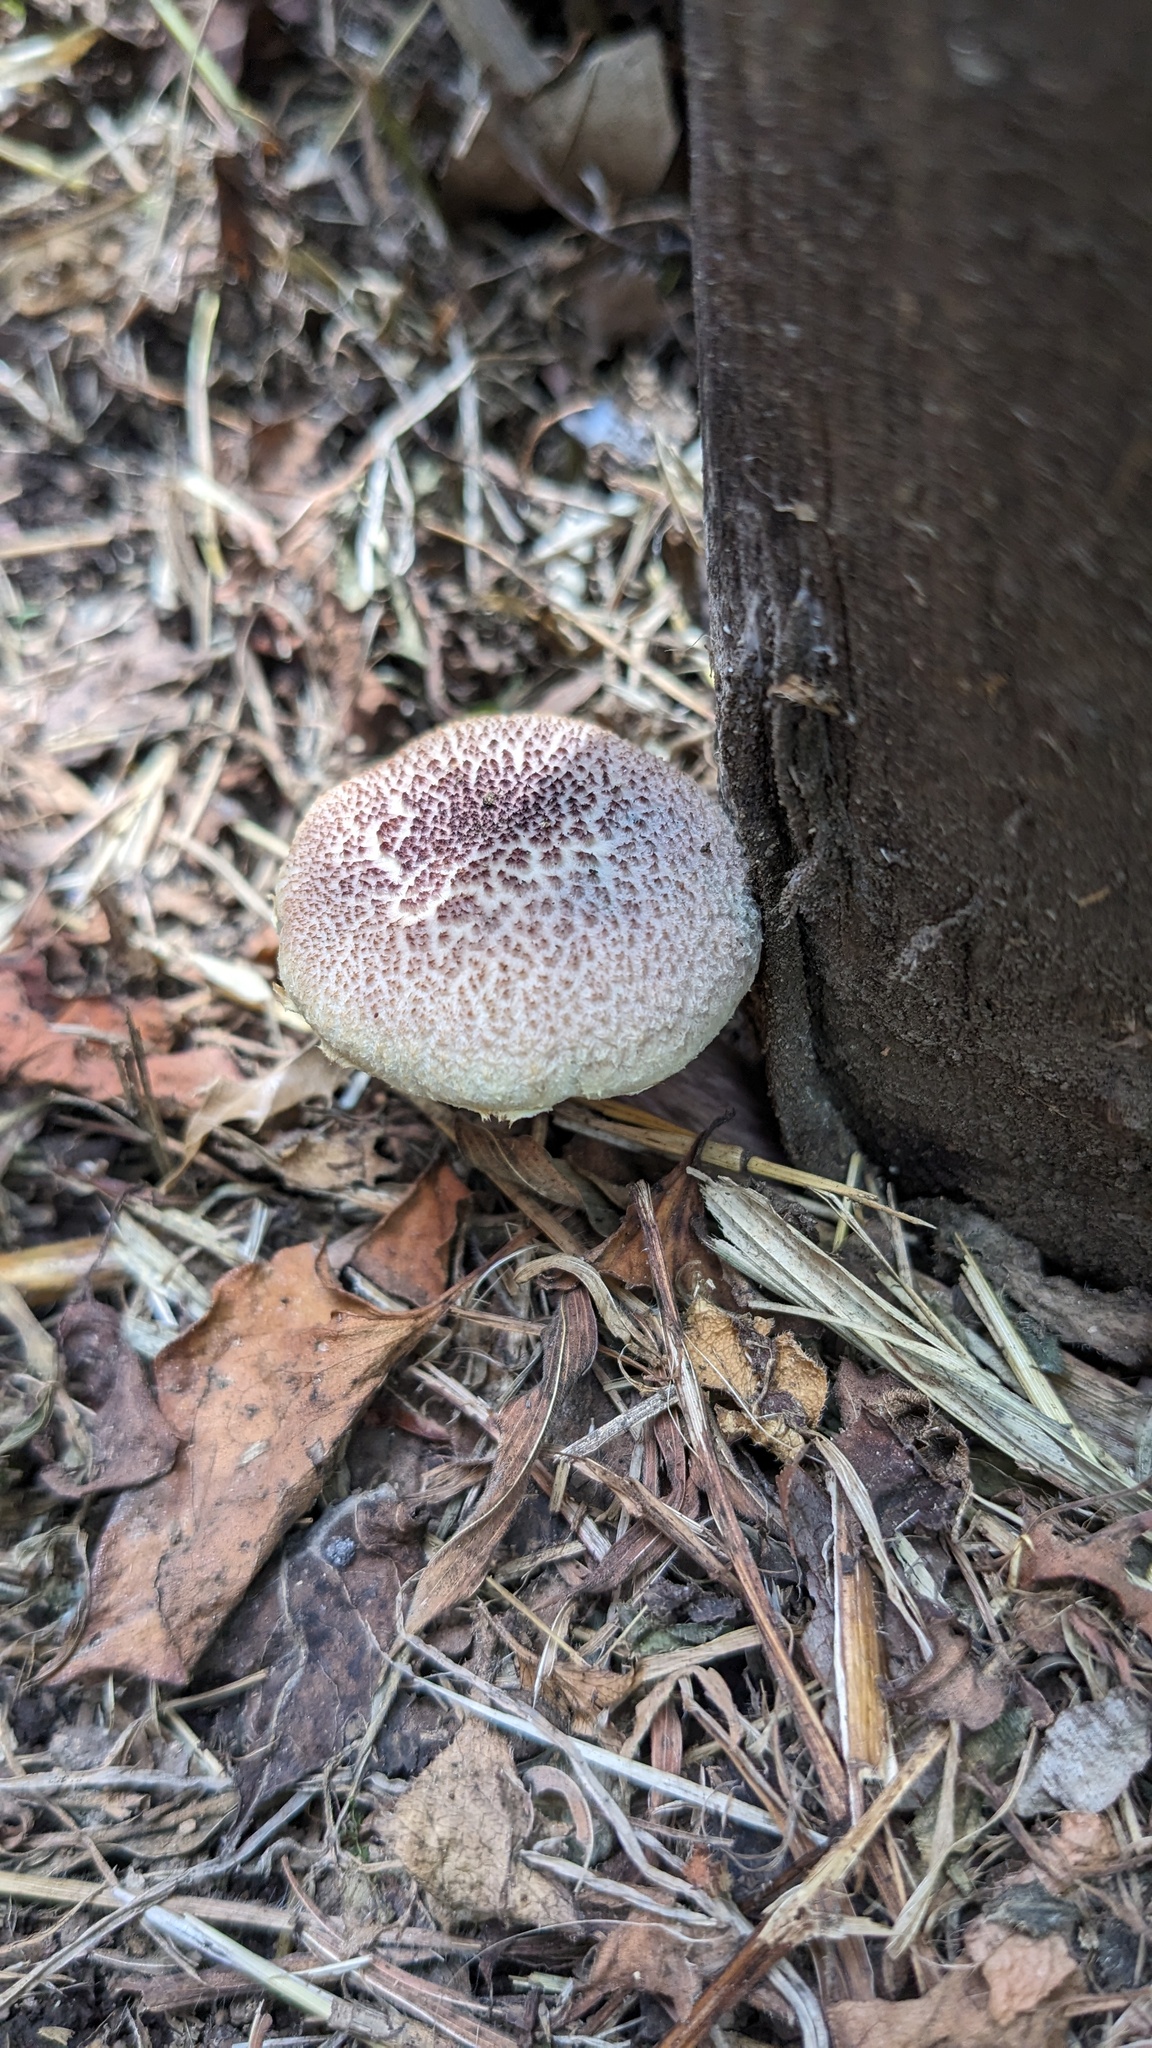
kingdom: Fungi
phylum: Basidiomycota
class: Agaricomycetes
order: Agaricales
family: Hymenogastraceae
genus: Gymnopilus
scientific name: Gymnopilus luteofolius
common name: Yellow-gilled gymnopilus
